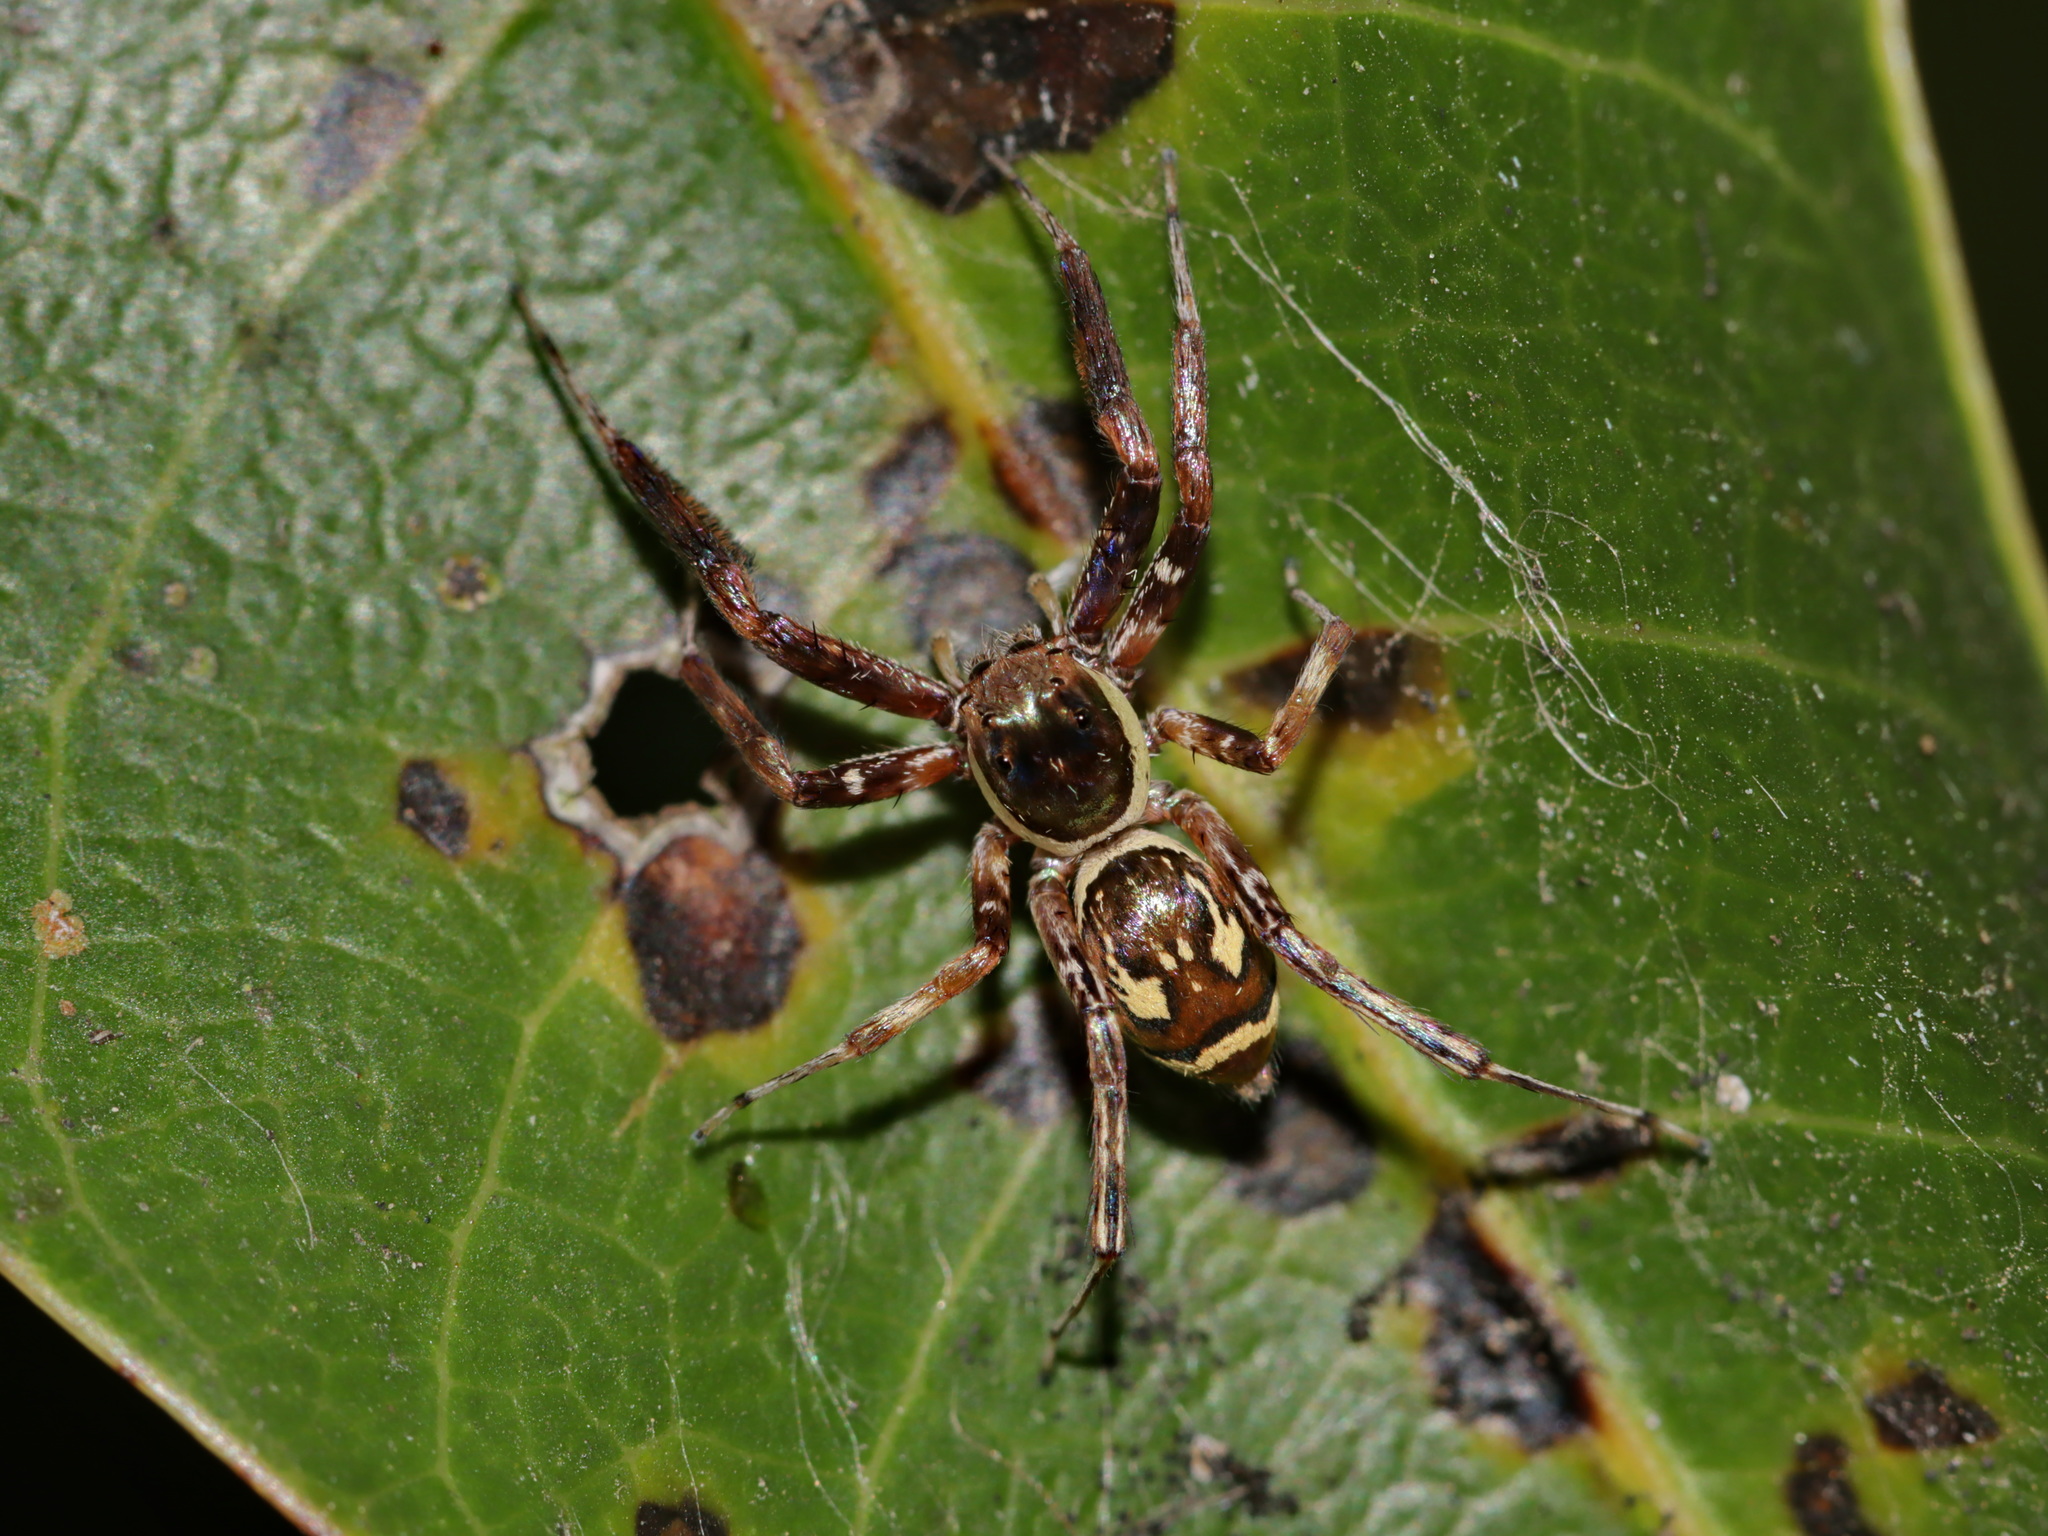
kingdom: Animalia
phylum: Arthropoda
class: Arachnida
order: Araneae
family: Salticidae
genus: Brettus
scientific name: Brettus cingulatus
